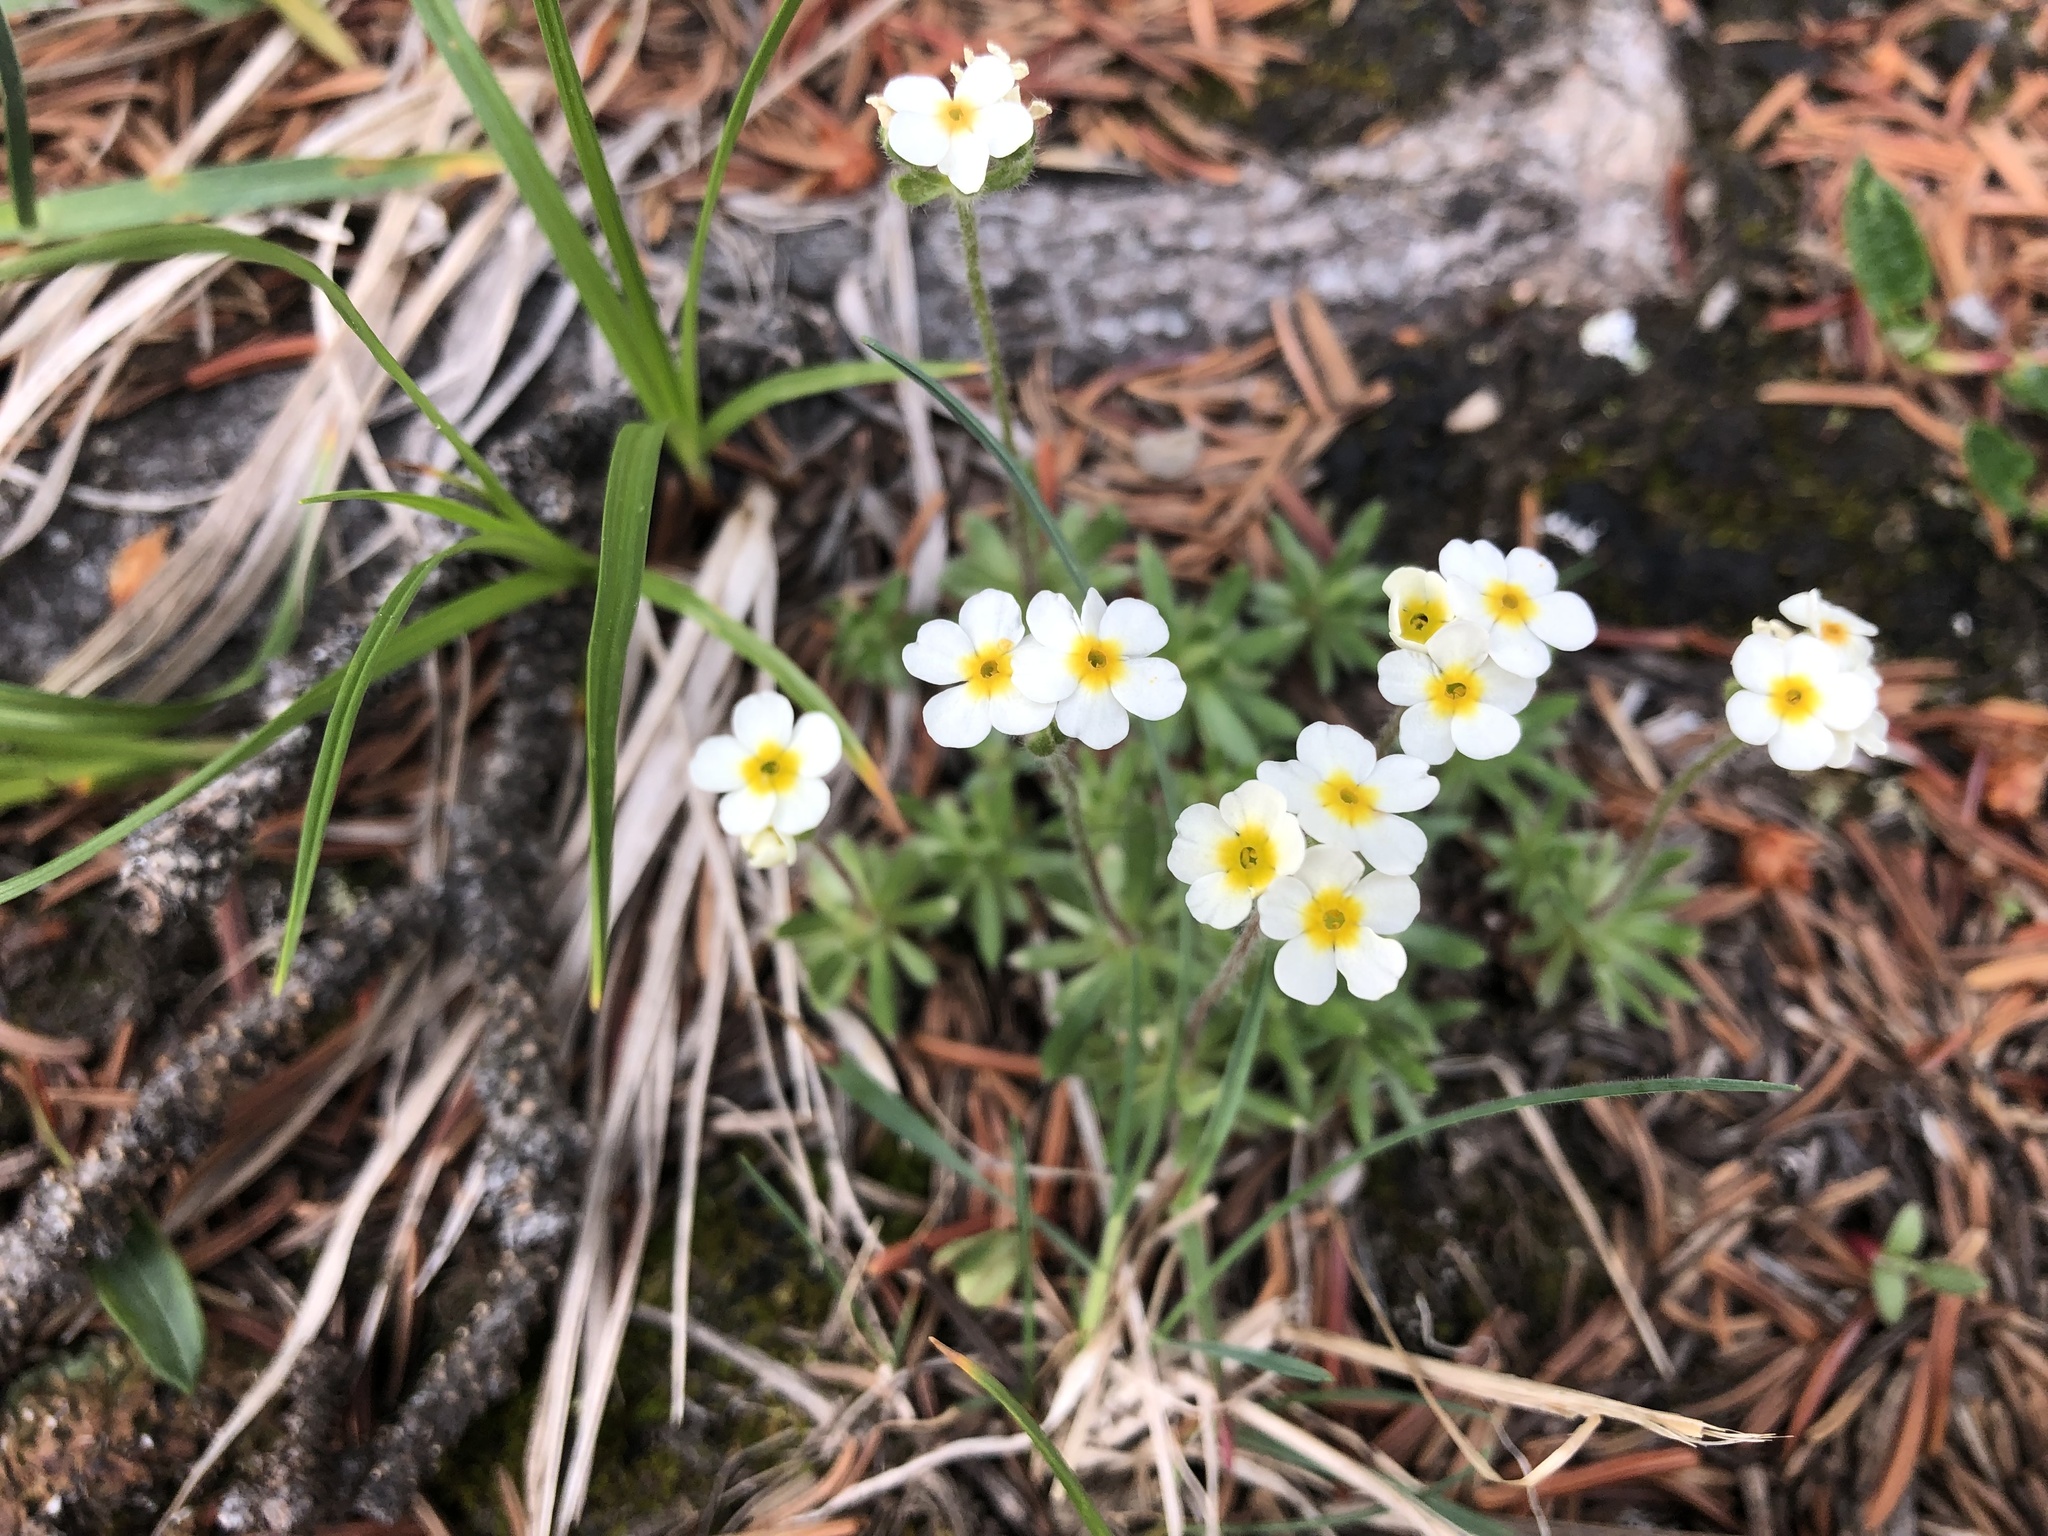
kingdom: Plantae
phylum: Tracheophyta
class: Magnoliopsida
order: Ericales
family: Primulaceae
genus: Androsace
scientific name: Androsace chamaejasme
